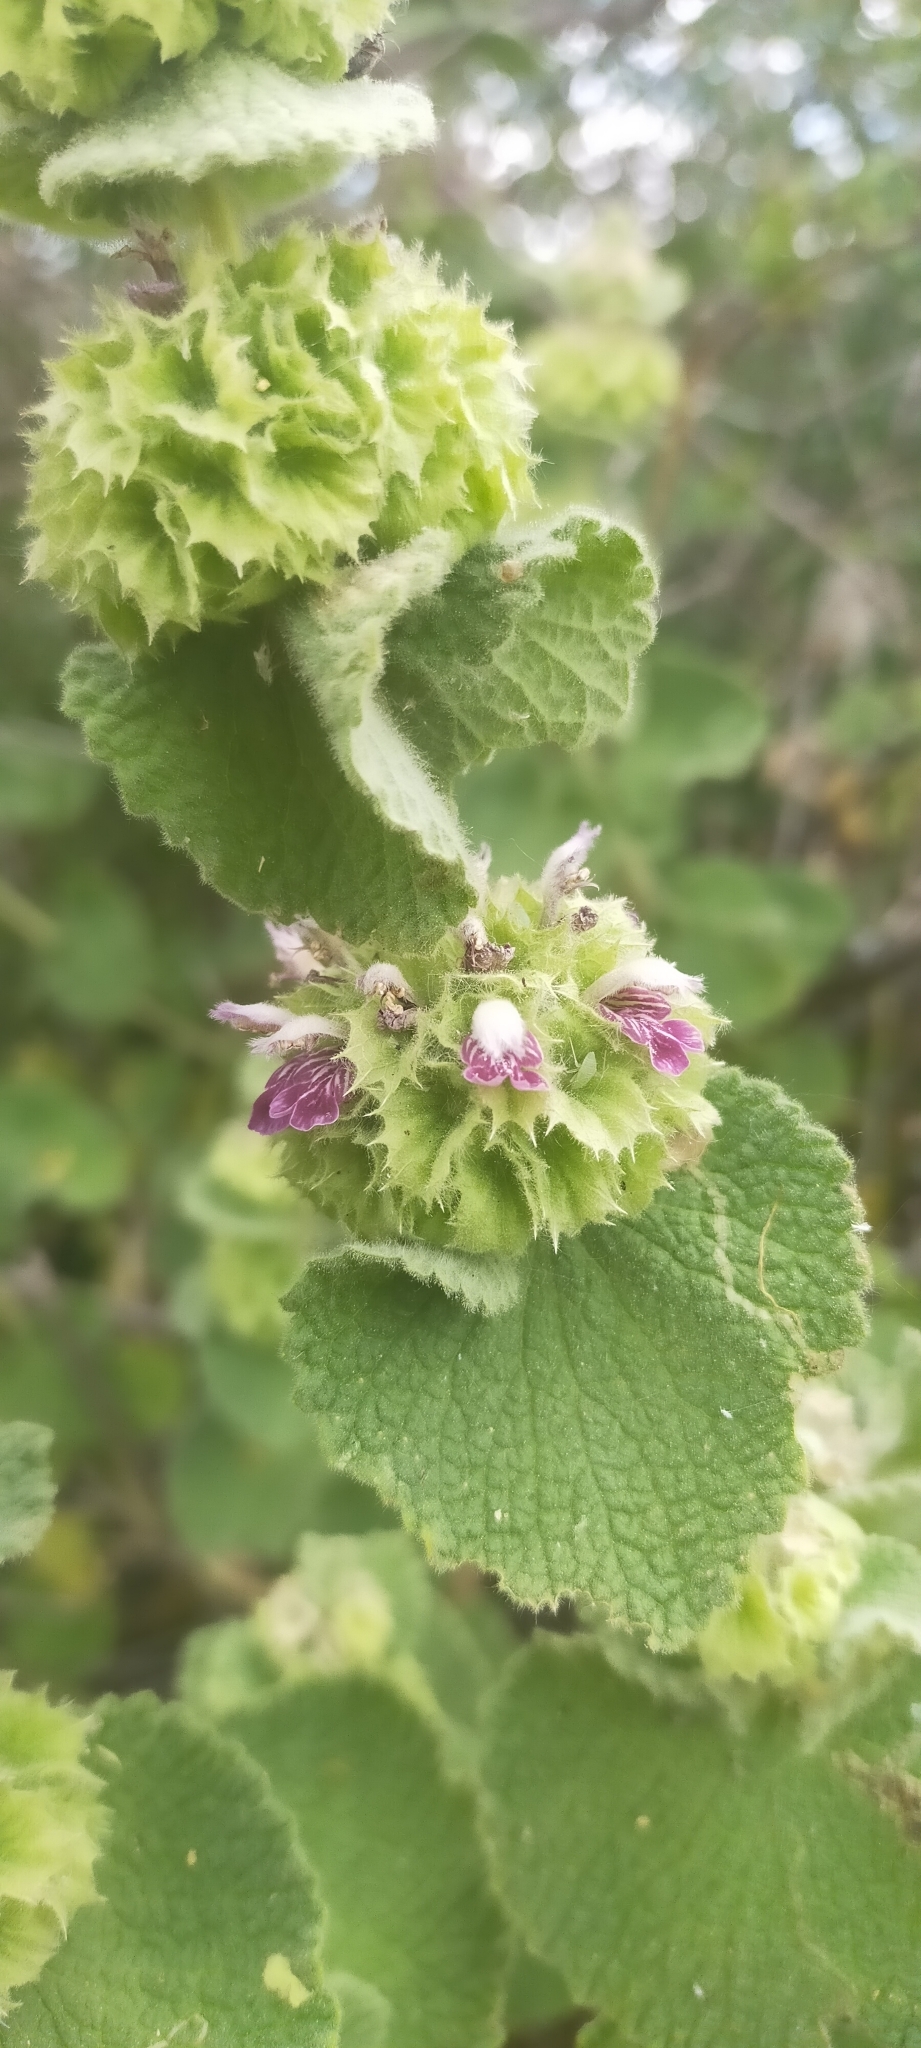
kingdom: Plantae
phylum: Tracheophyta
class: Magnoliopsida
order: Lamiales
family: Lamiaceae
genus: Pseudodictamnus
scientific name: Pseudodictamnus hirsutus
